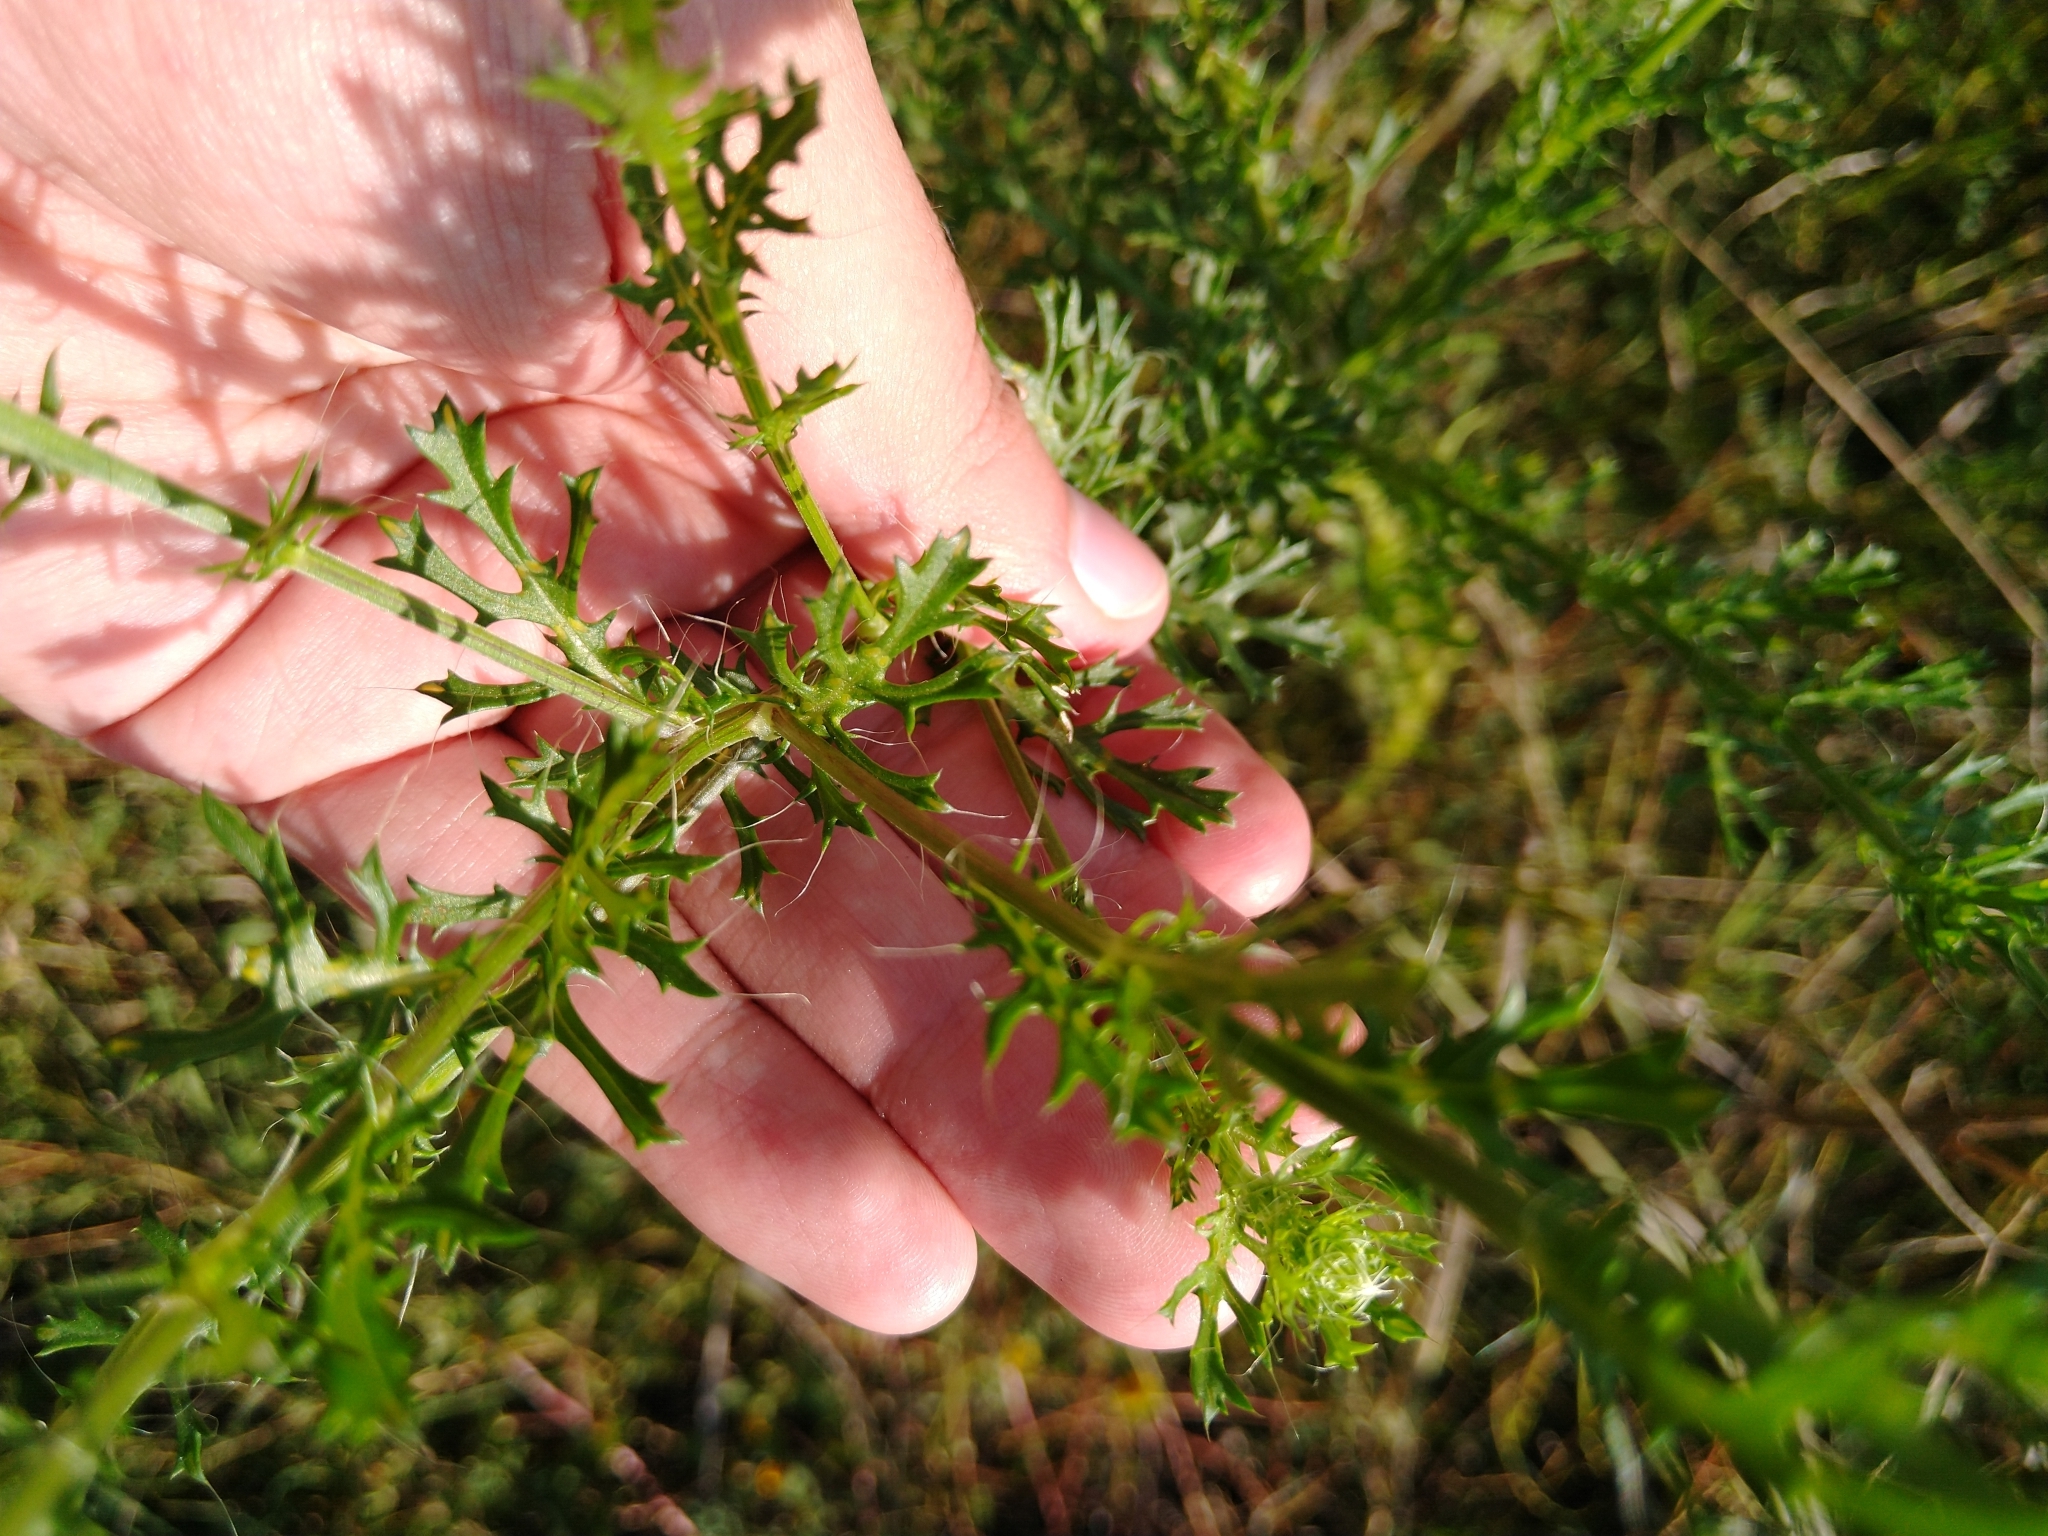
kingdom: Plantae
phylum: Tracheophyta
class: Magnoliopsida
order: Asterales
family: Asteraceae
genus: Adenophyllum
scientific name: Adenophyllum cancellatum
